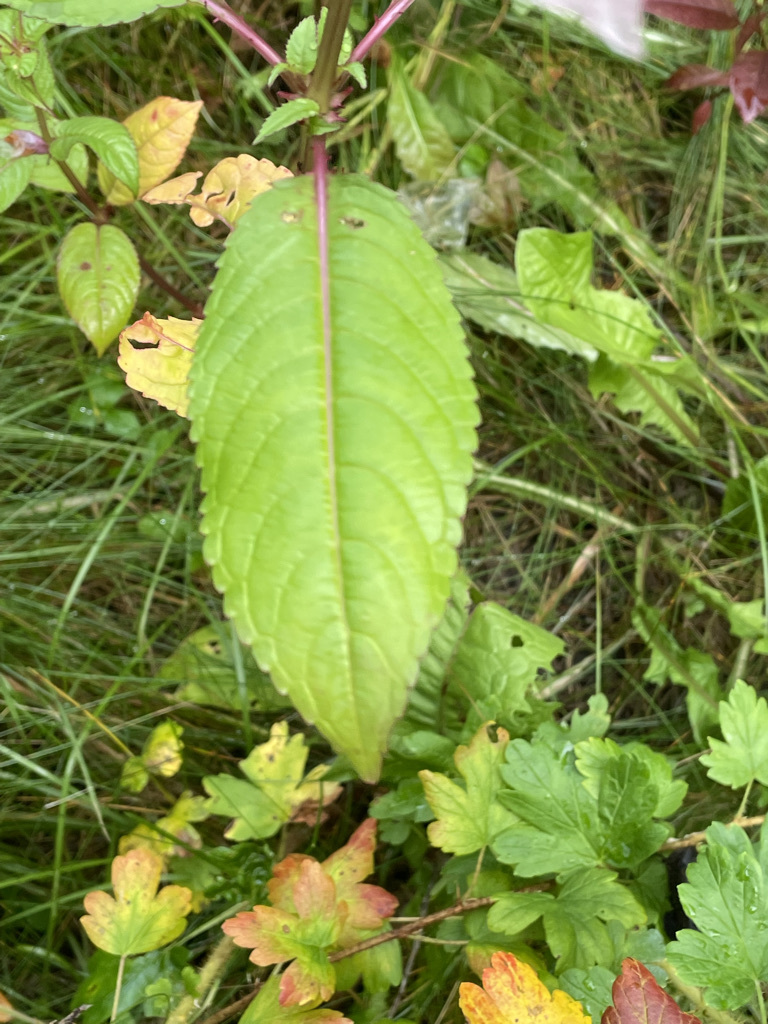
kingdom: Plantae
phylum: Tracheophyta
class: Magnoliopsida
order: Ericales
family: Balsaminaceae
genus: Impatiens
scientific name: Impatiens glandulifera
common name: Himalayan balsam
